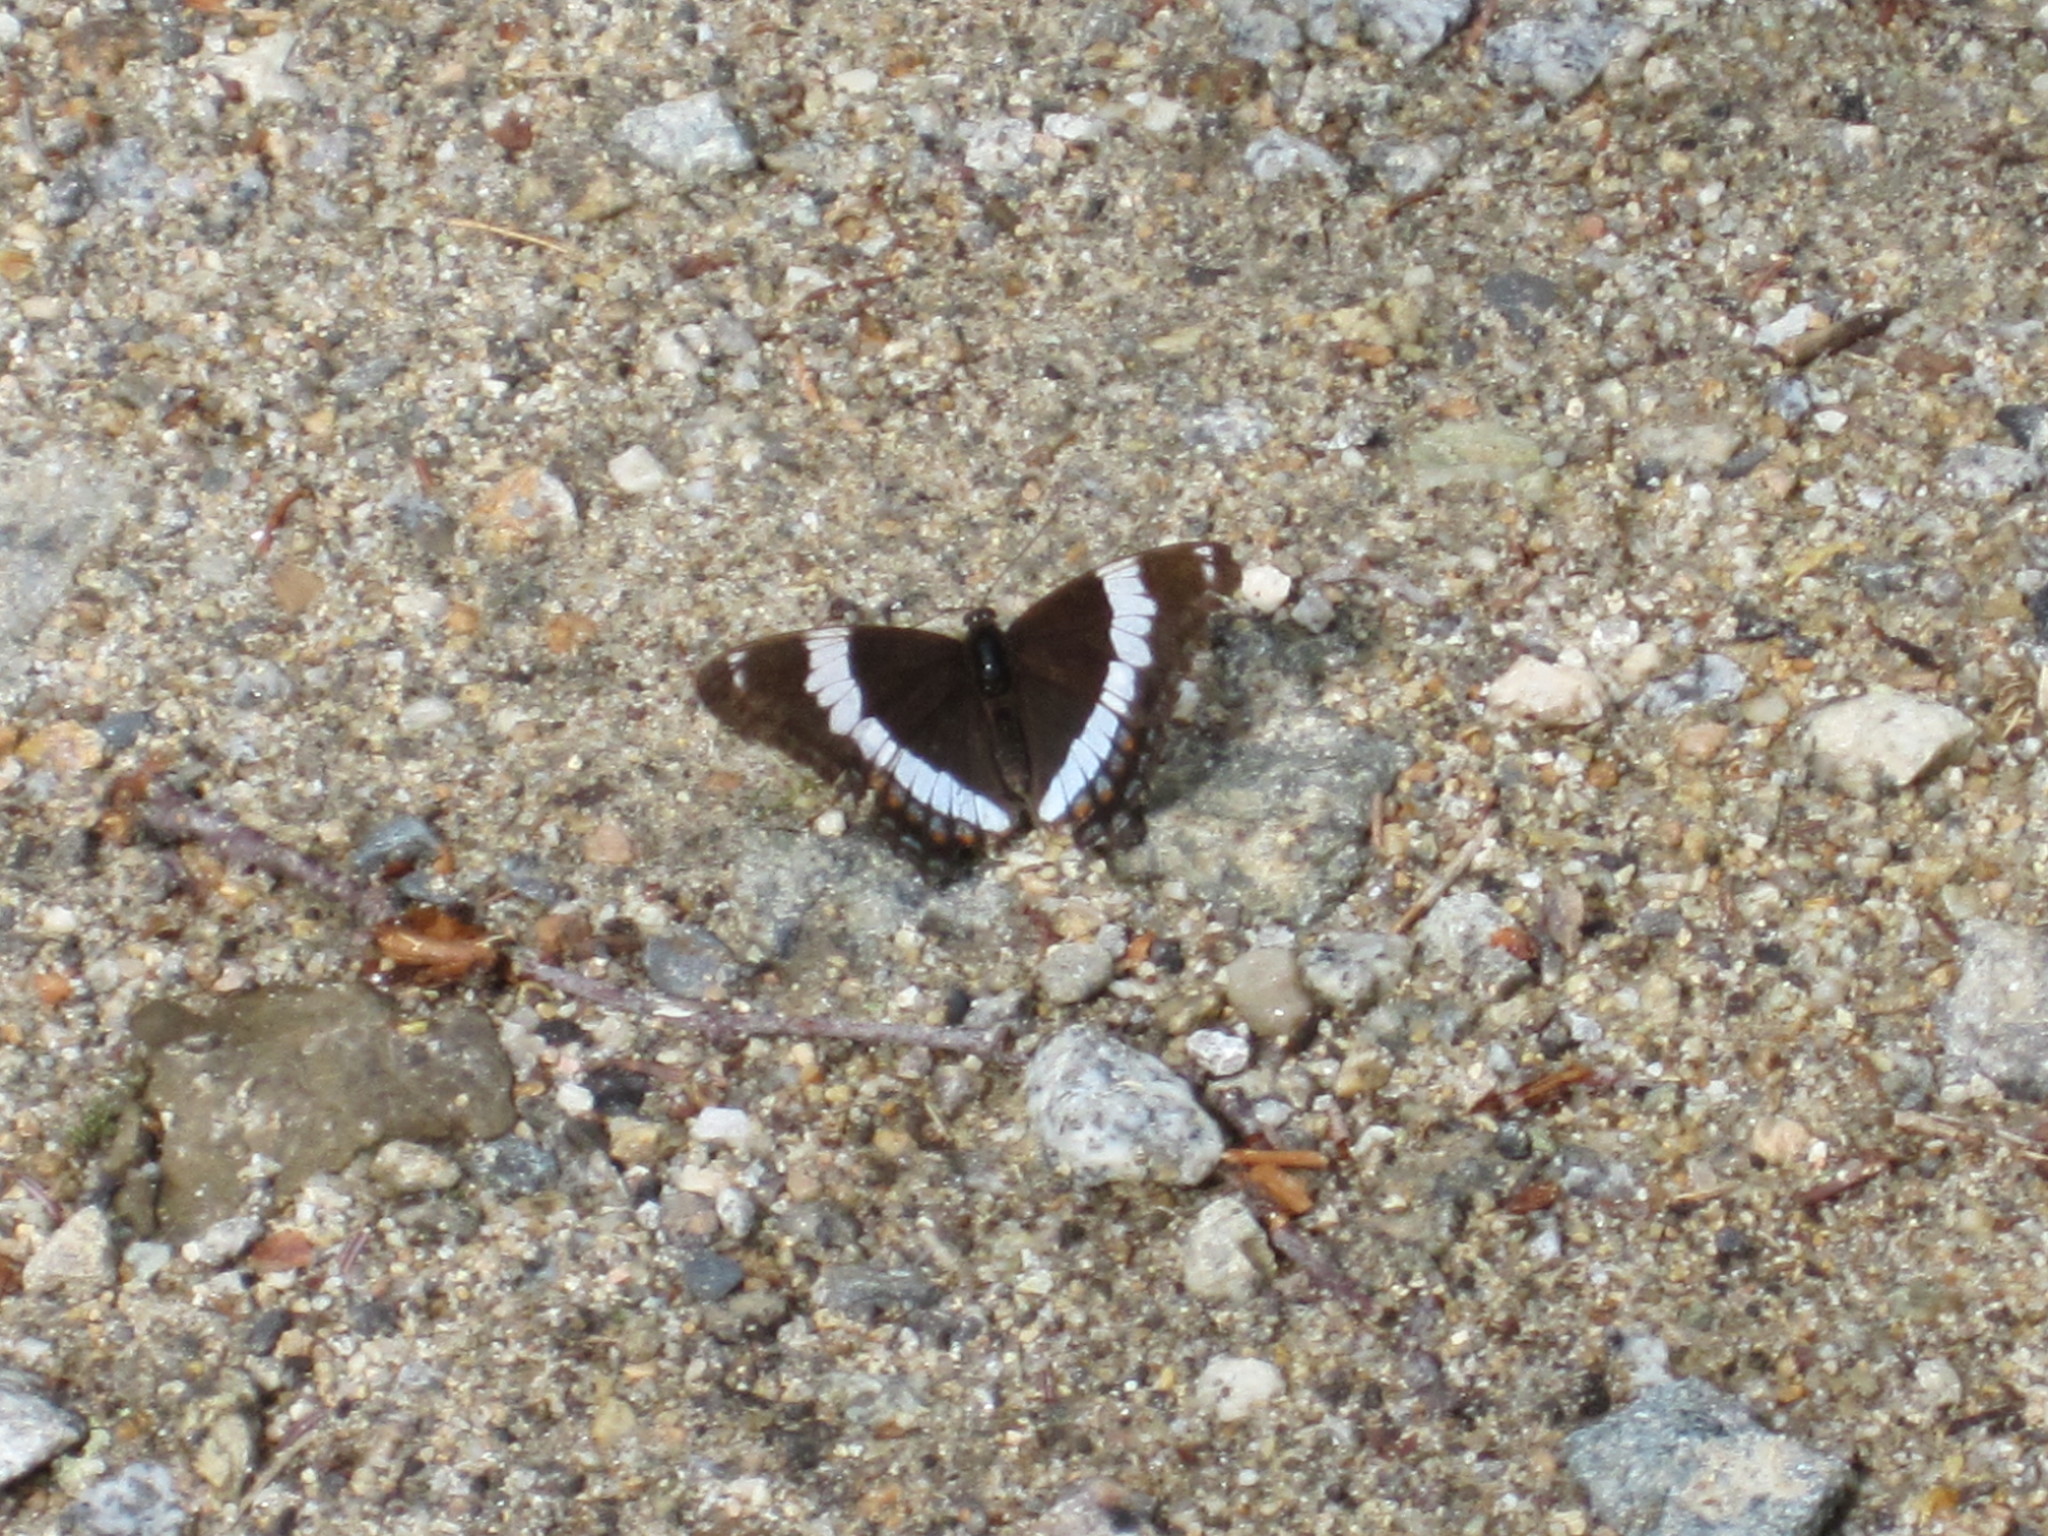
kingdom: Animalia
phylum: Arthropoda
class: Insecta
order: Lepidoptera
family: Nymphalidae
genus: Limenitis
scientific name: Limenitis arthemis
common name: Red-spotted admiral
